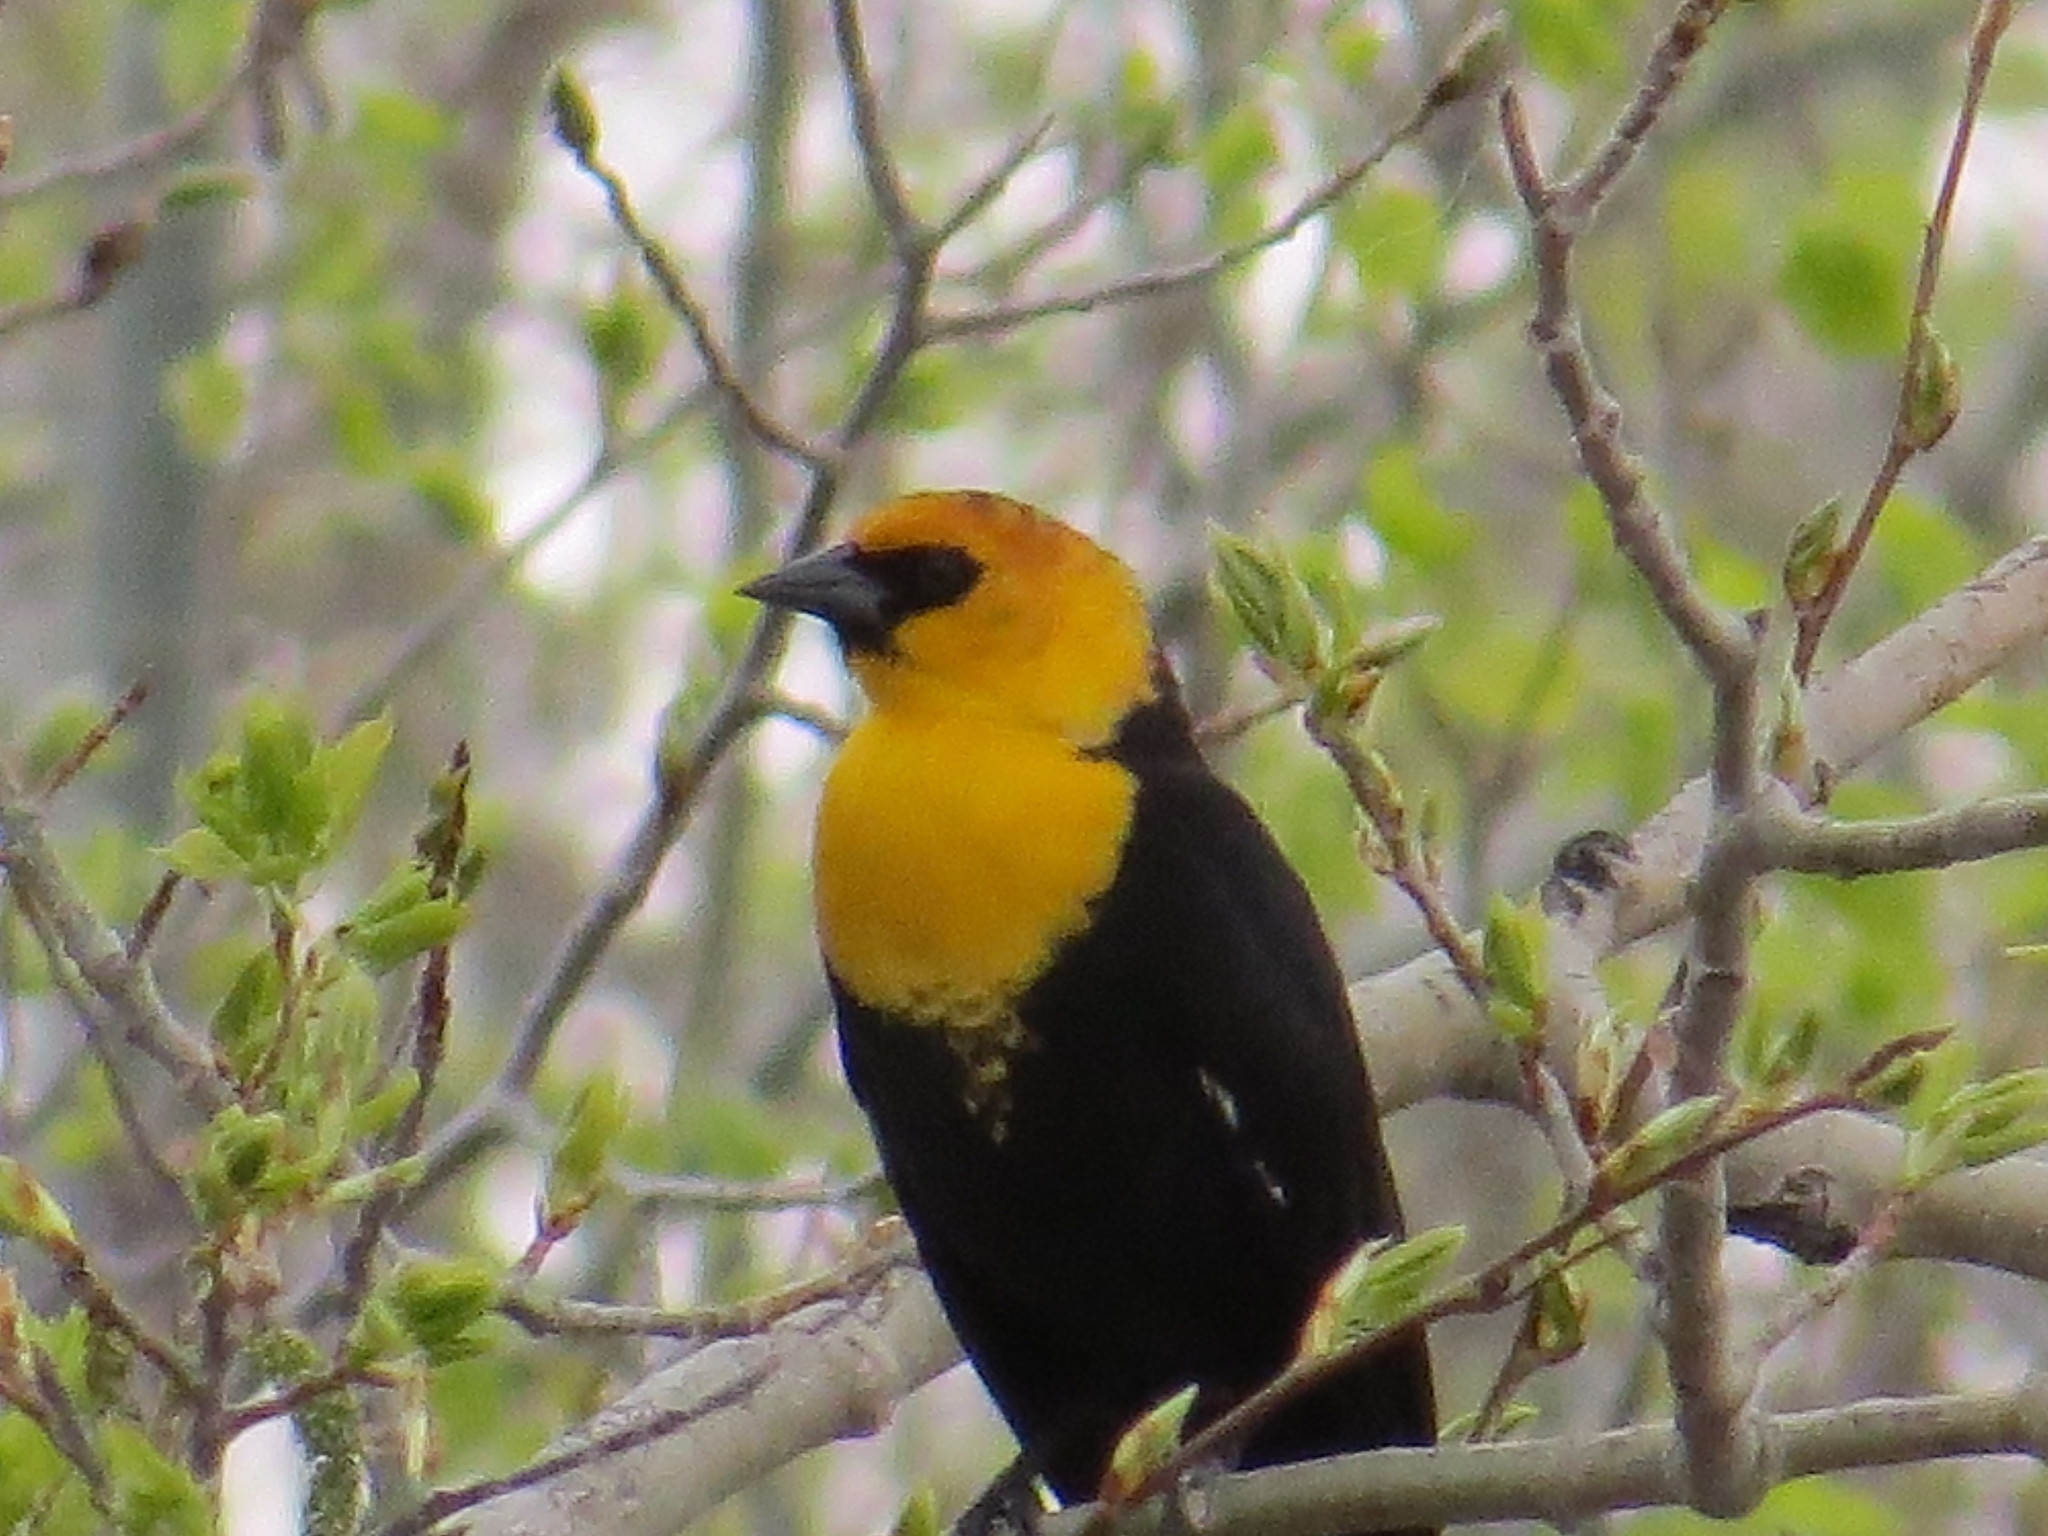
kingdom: Animalia
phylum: Chordata
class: Aves
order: Passeriformes
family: Icteridae
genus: Xanthocephalus
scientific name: Xanthocephalus xanthocephalus
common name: Yellow-headed blackbird
